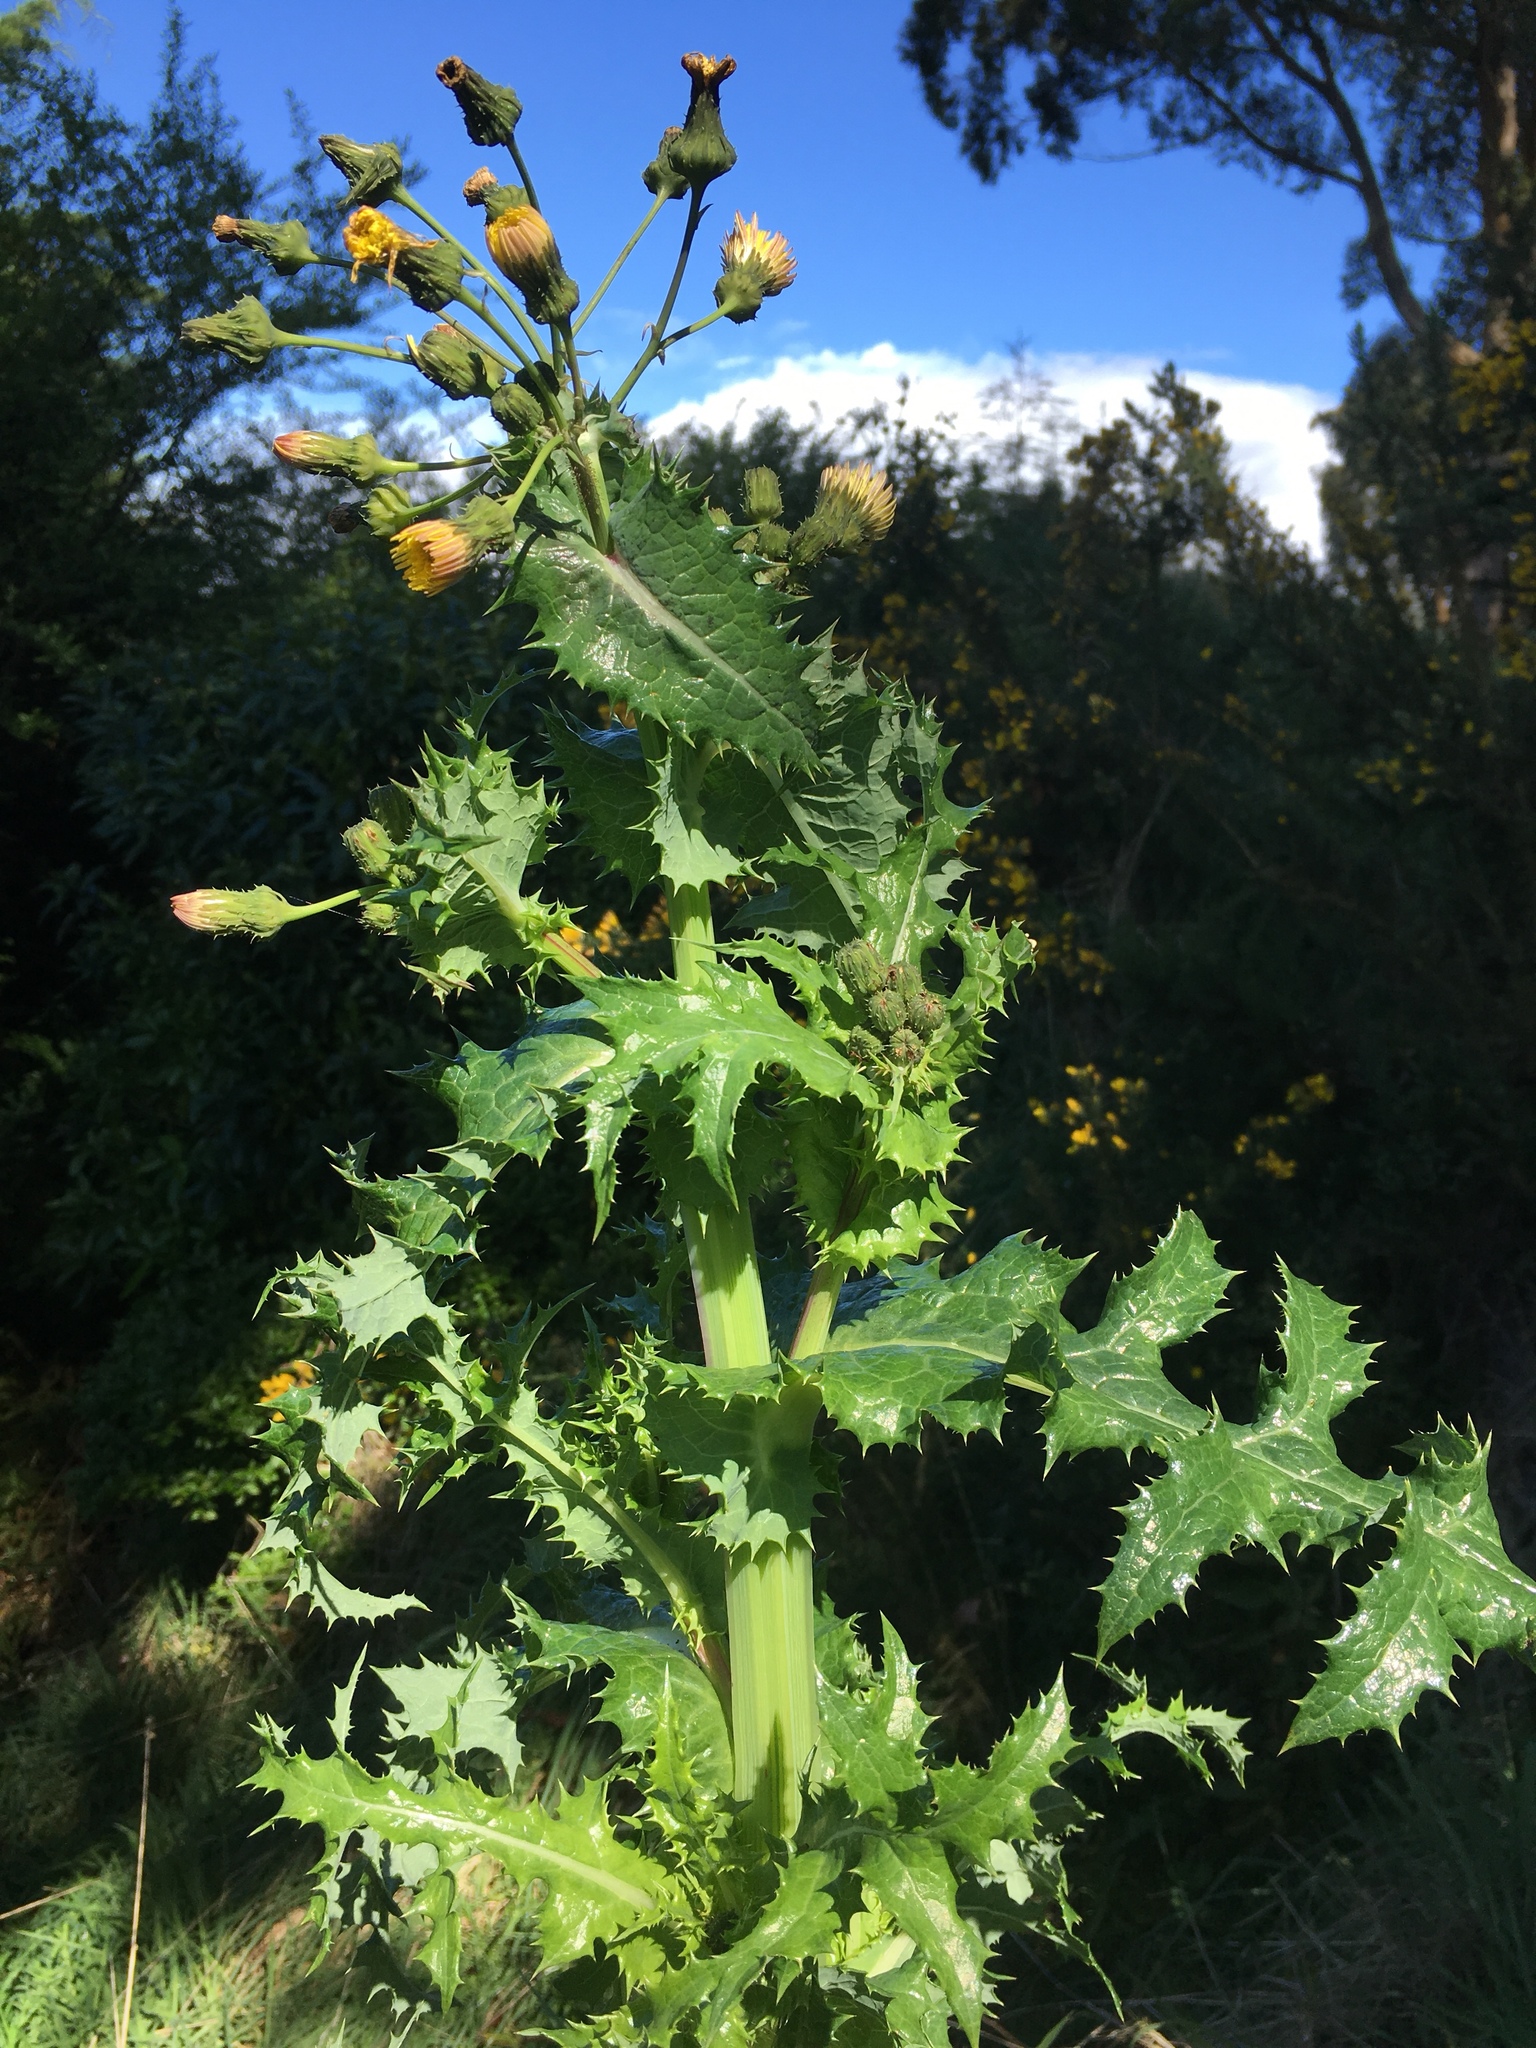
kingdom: Plantae
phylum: Tracheophyta
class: Magnoliopsida
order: Asterales
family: Asteraceae
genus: Sonchus
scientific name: Sonchus asper
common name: Prickly sow-thistle
